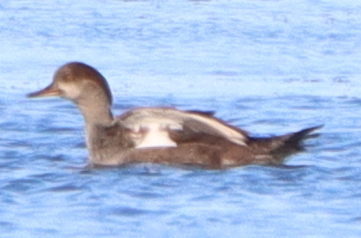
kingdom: Animalia
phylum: Chordata
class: Aves
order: Anseriformes
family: Anatidae
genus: Lophodytes
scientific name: Lophodytes cucullatus
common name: Hooded merganser
